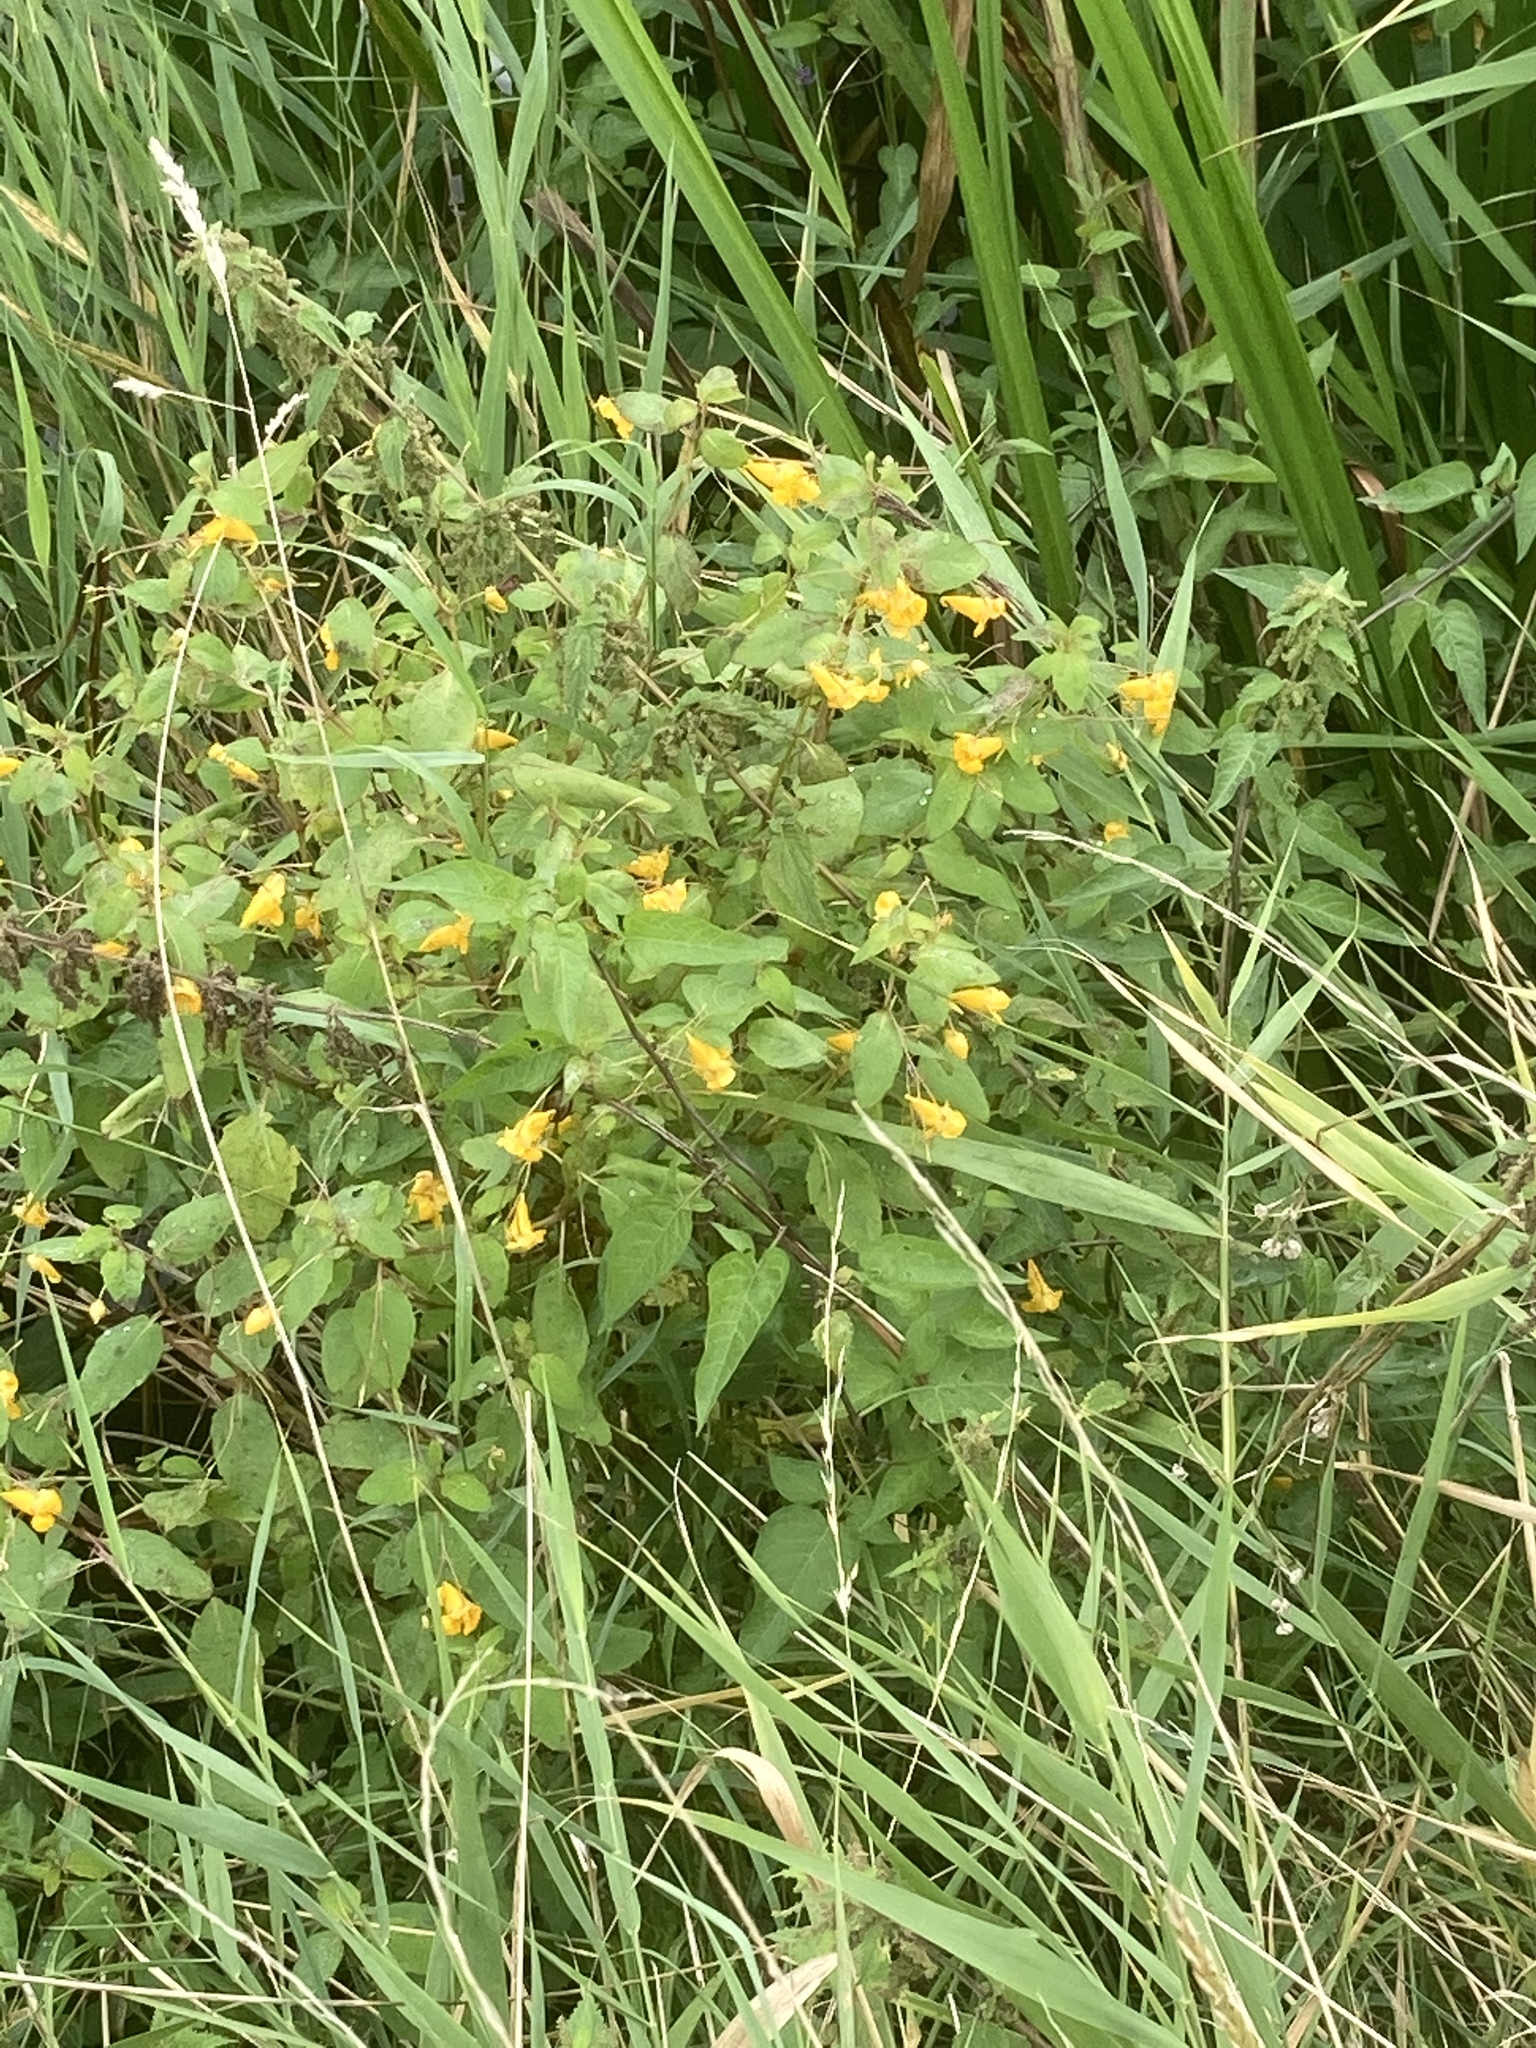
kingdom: Plantae
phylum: Tracheophyta
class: Magnoliopsida
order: Ericales
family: Balsaminaceae
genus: Impatiens
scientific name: Impatiens capensis
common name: Orange balsam
